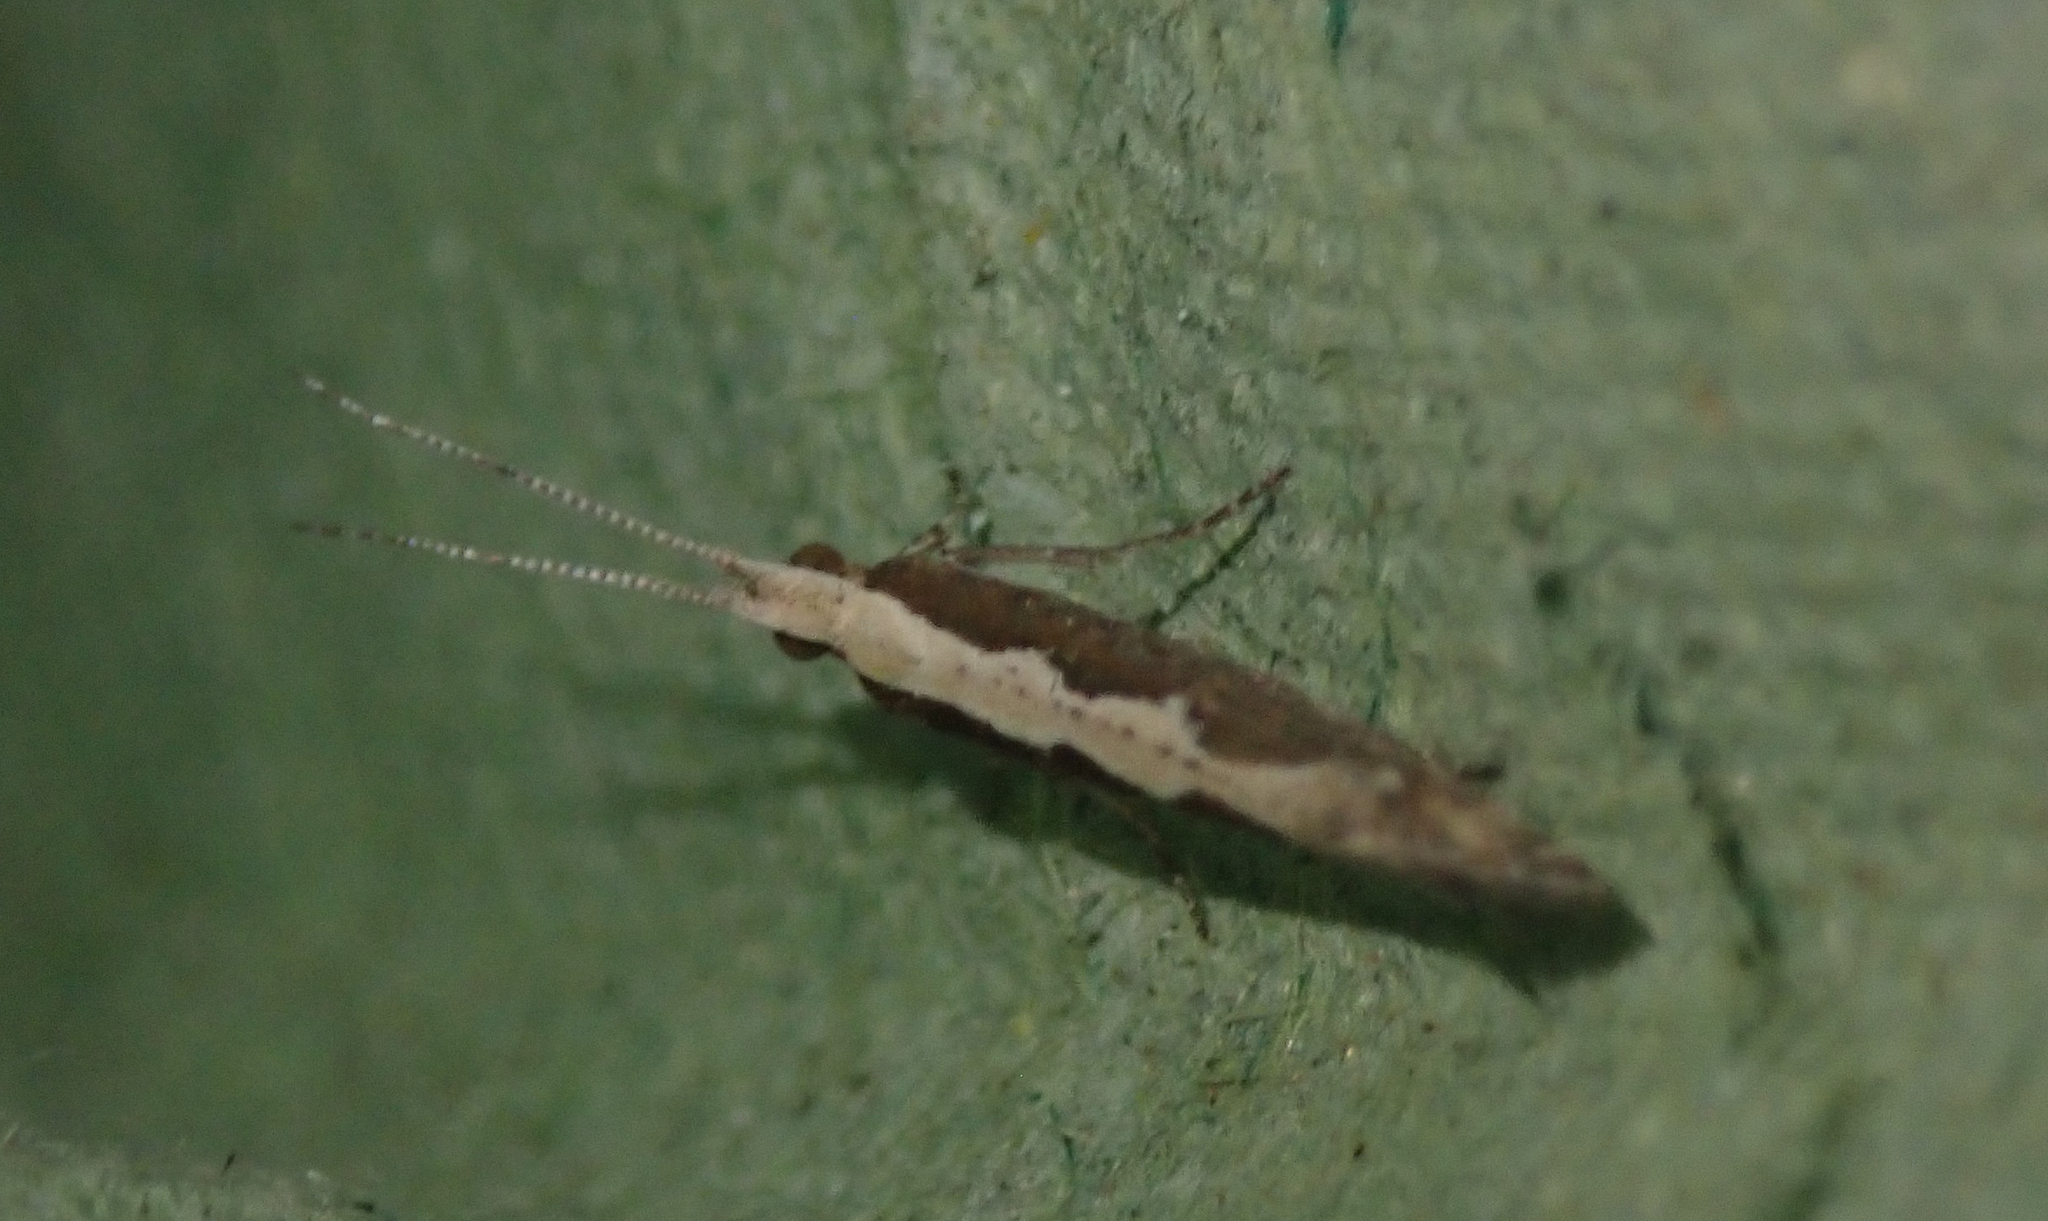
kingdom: Animalia
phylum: Arthropoda
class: Insecta
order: Lepidoptera
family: Plutellidae
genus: Plutella
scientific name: Plutella xylostella
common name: Diamond-back moth
